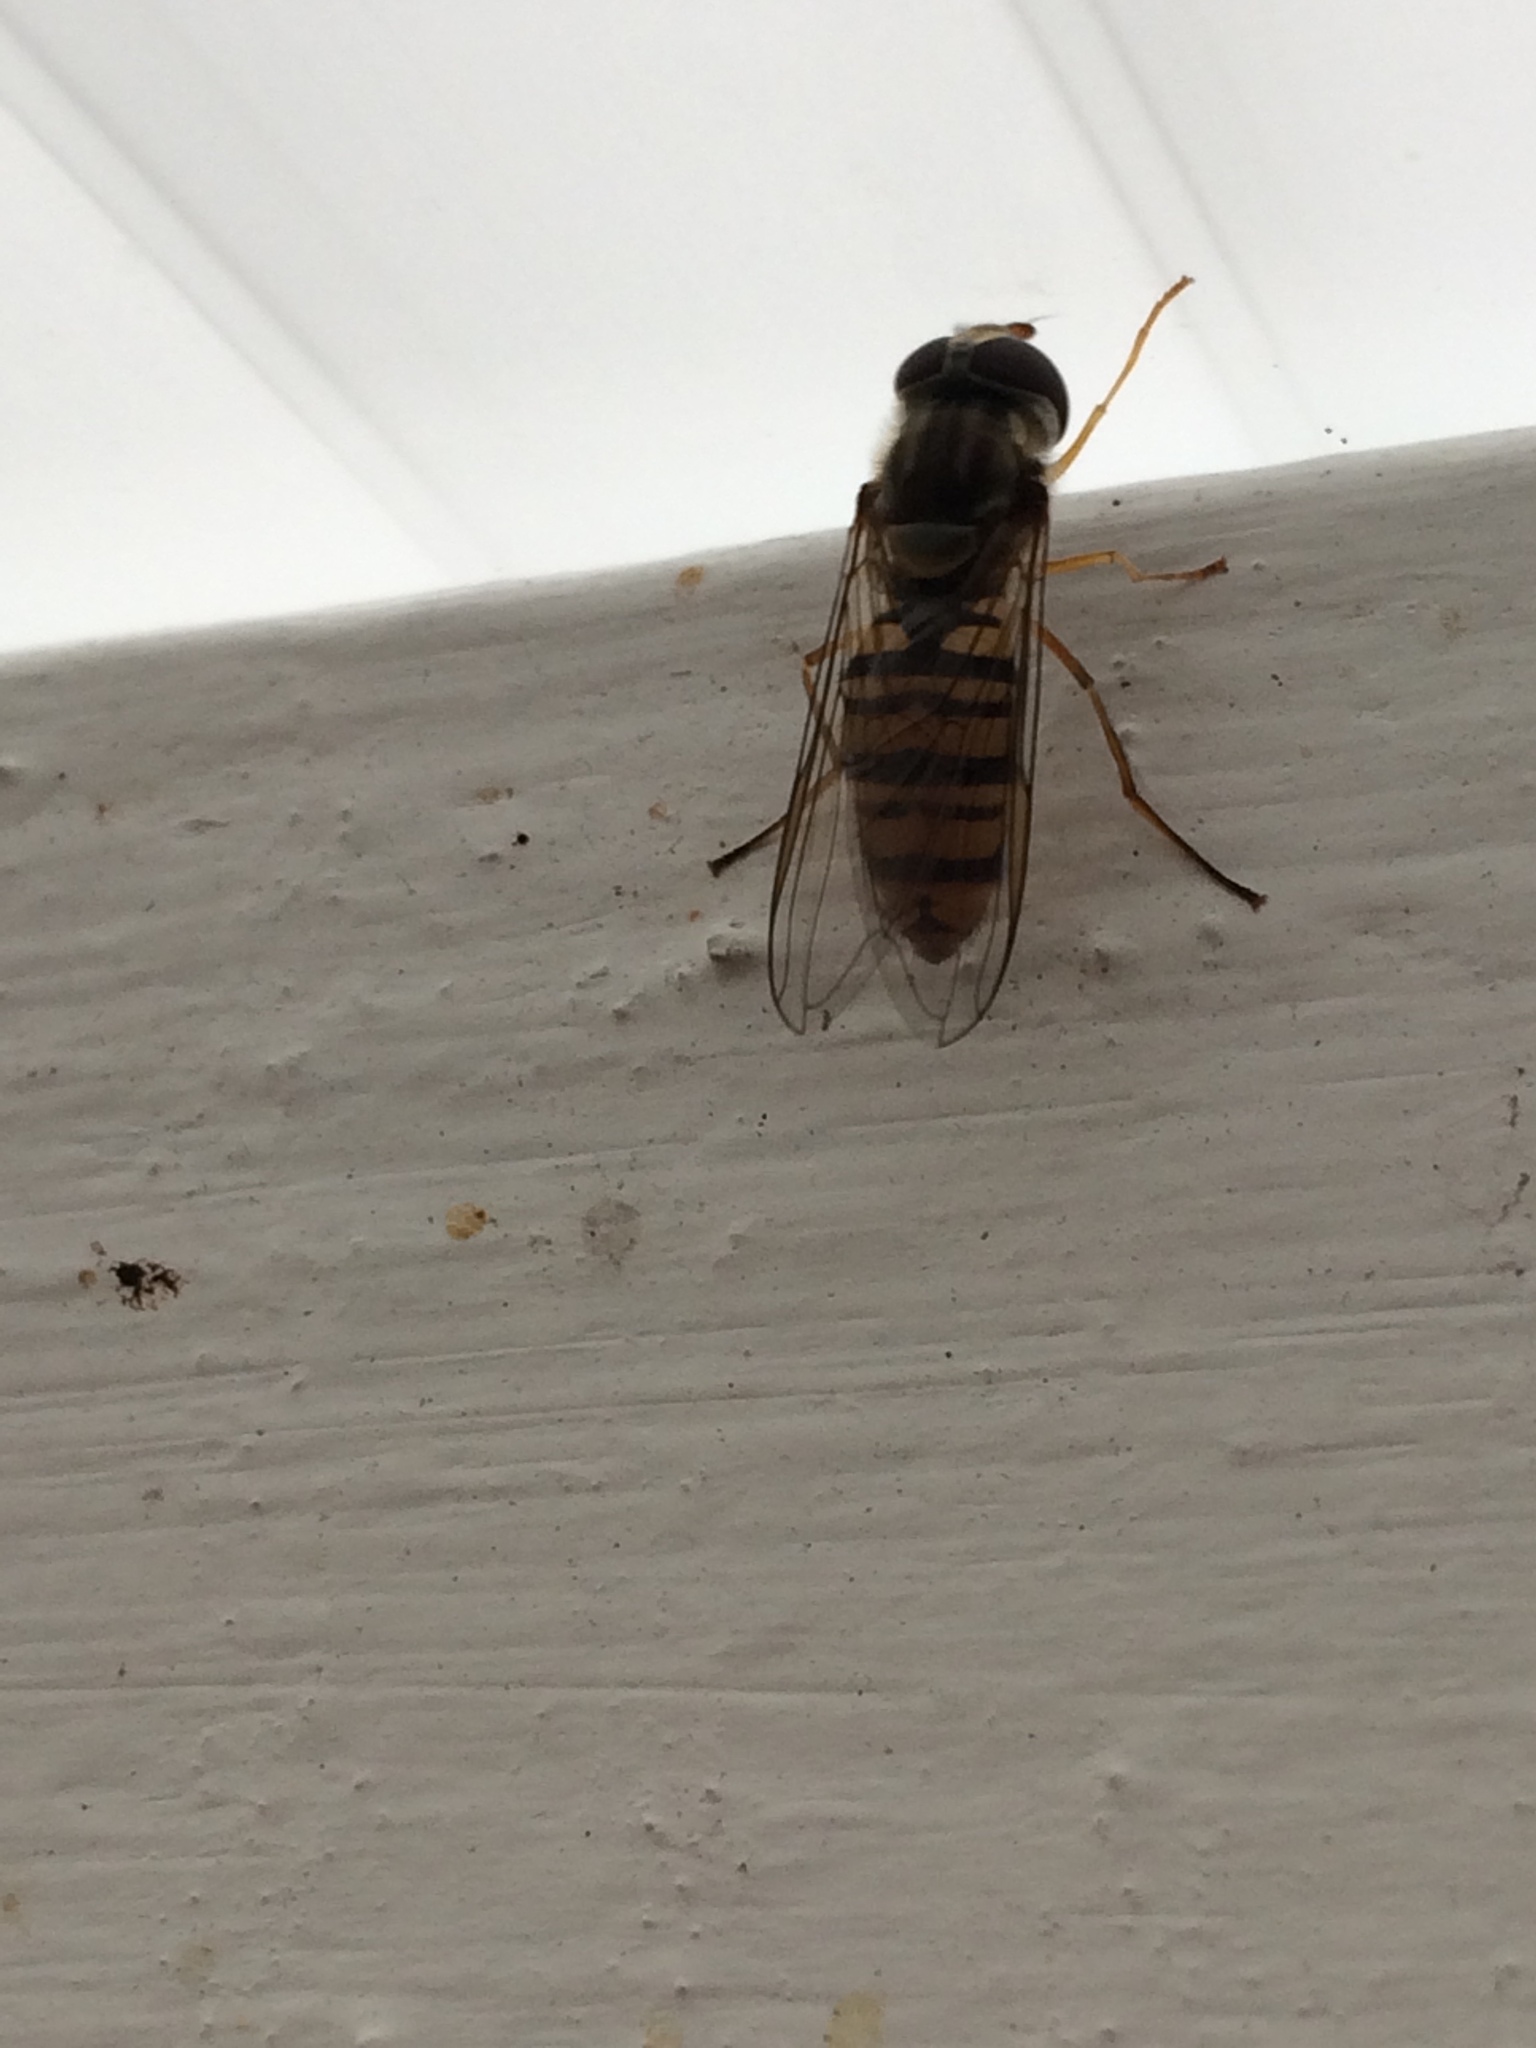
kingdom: Animalia
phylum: Arthropoda
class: Insecta
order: Diptera
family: Syrphidae
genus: Episyrphus
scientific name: Episyrphus balteatus
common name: Marmalade hoverfly
